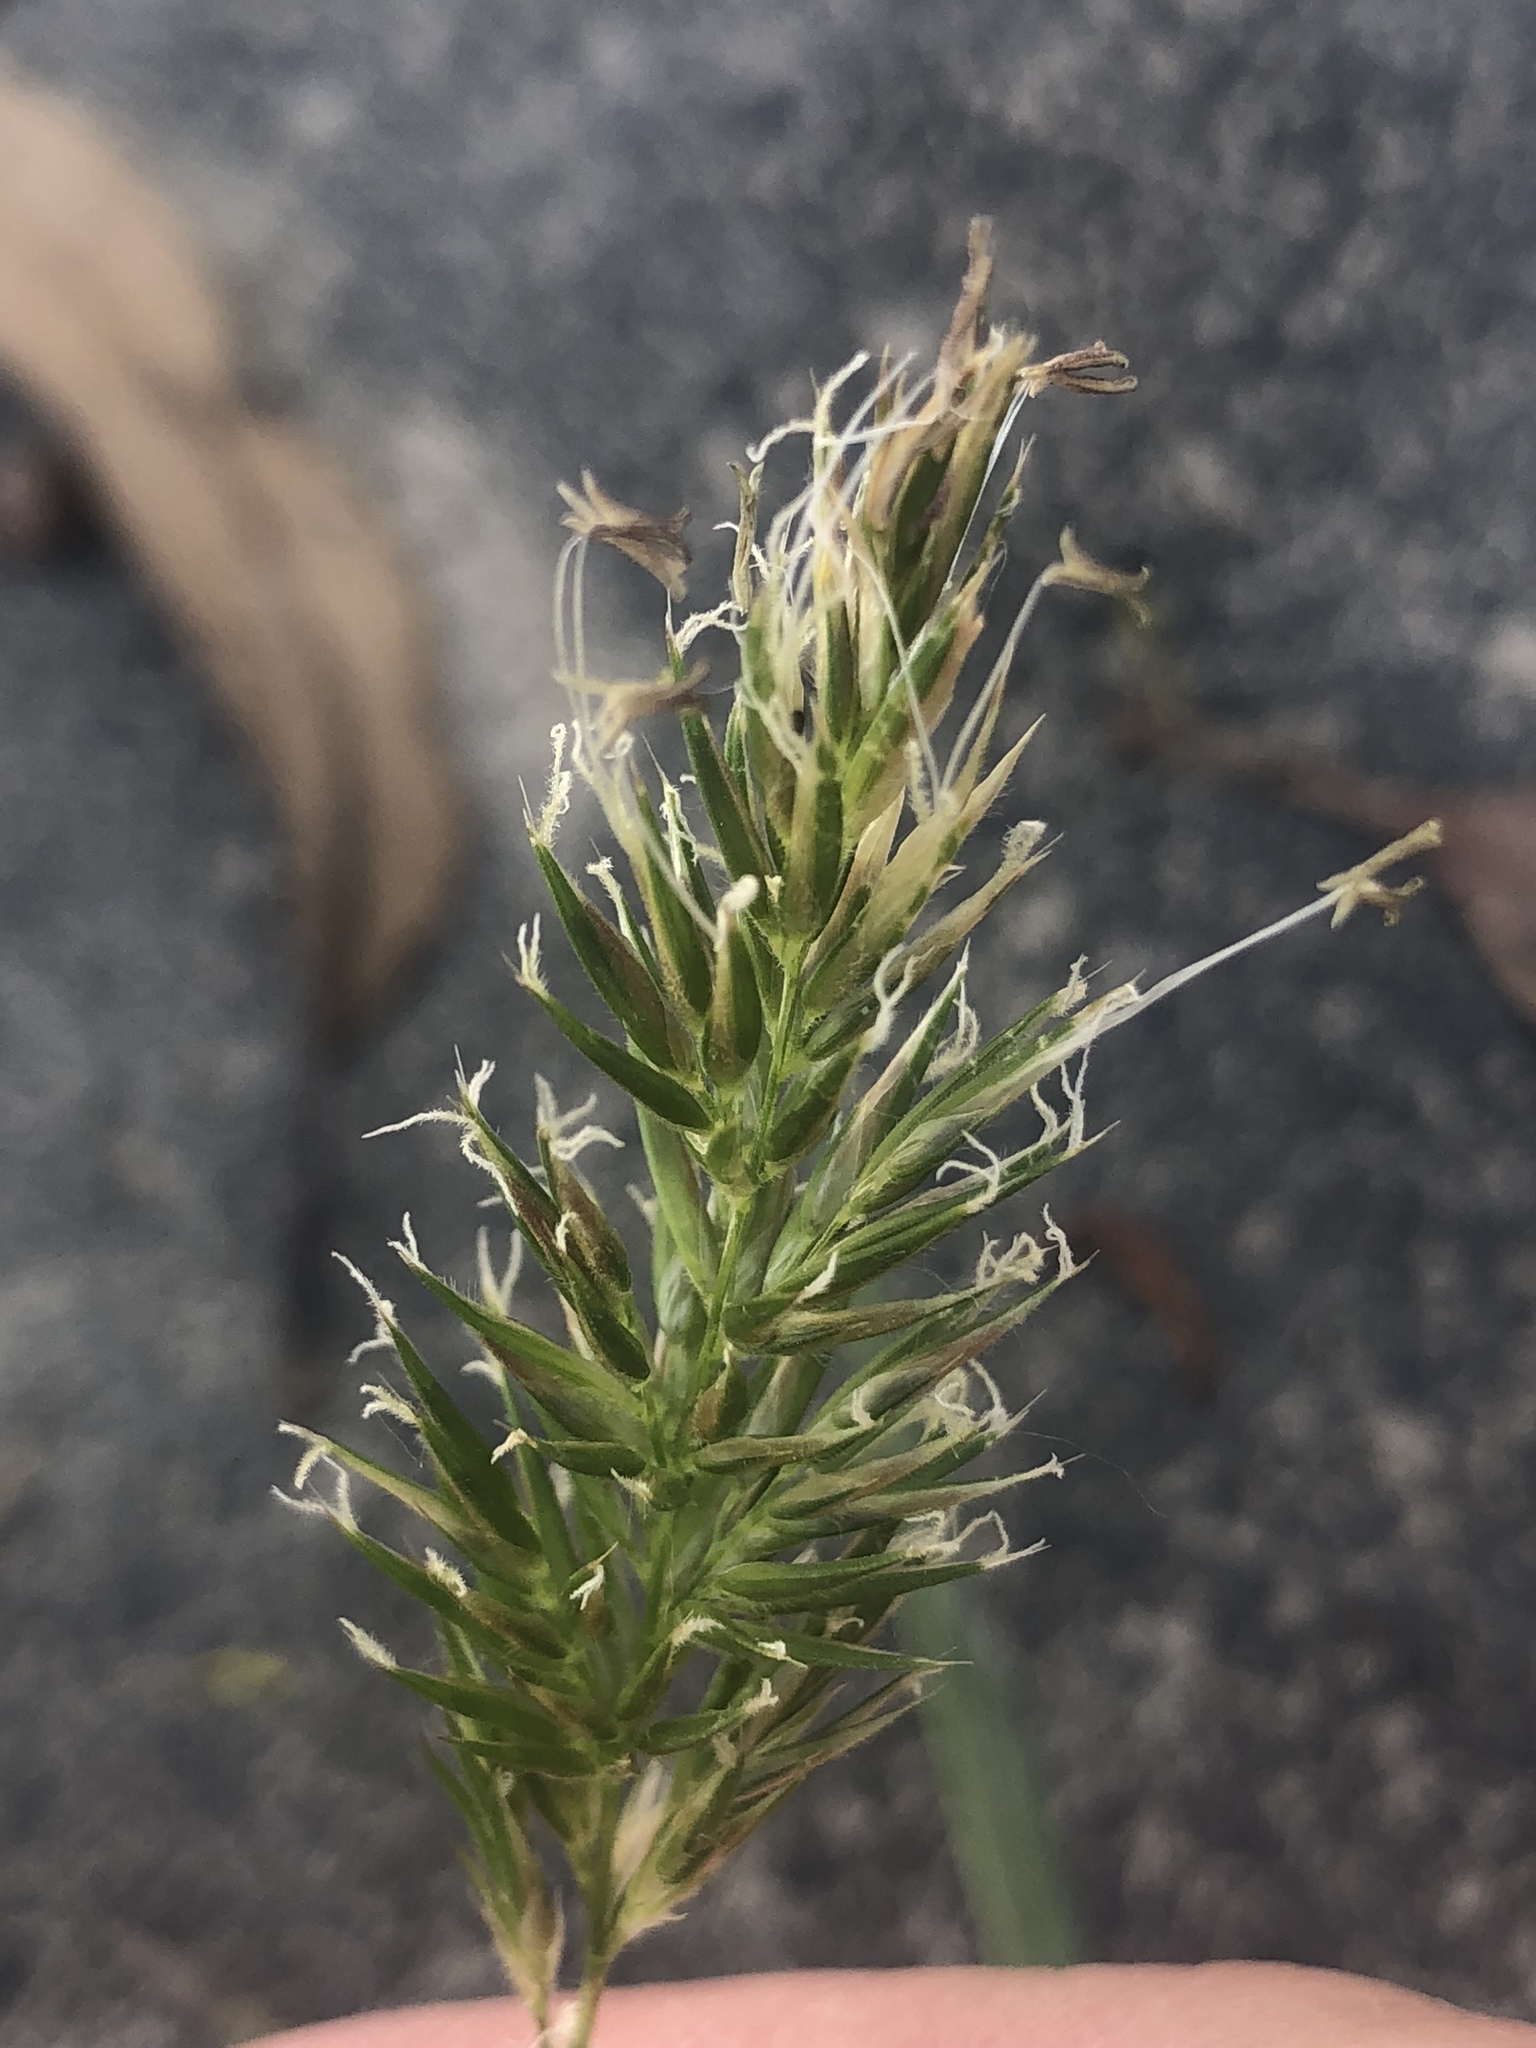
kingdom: Plantae
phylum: Tracheophyta
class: Liliopsida
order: Poales
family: Poaceae
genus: Anthoxanthum
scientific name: Anthoxanthum odoratum
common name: Sweet vernalgrass
